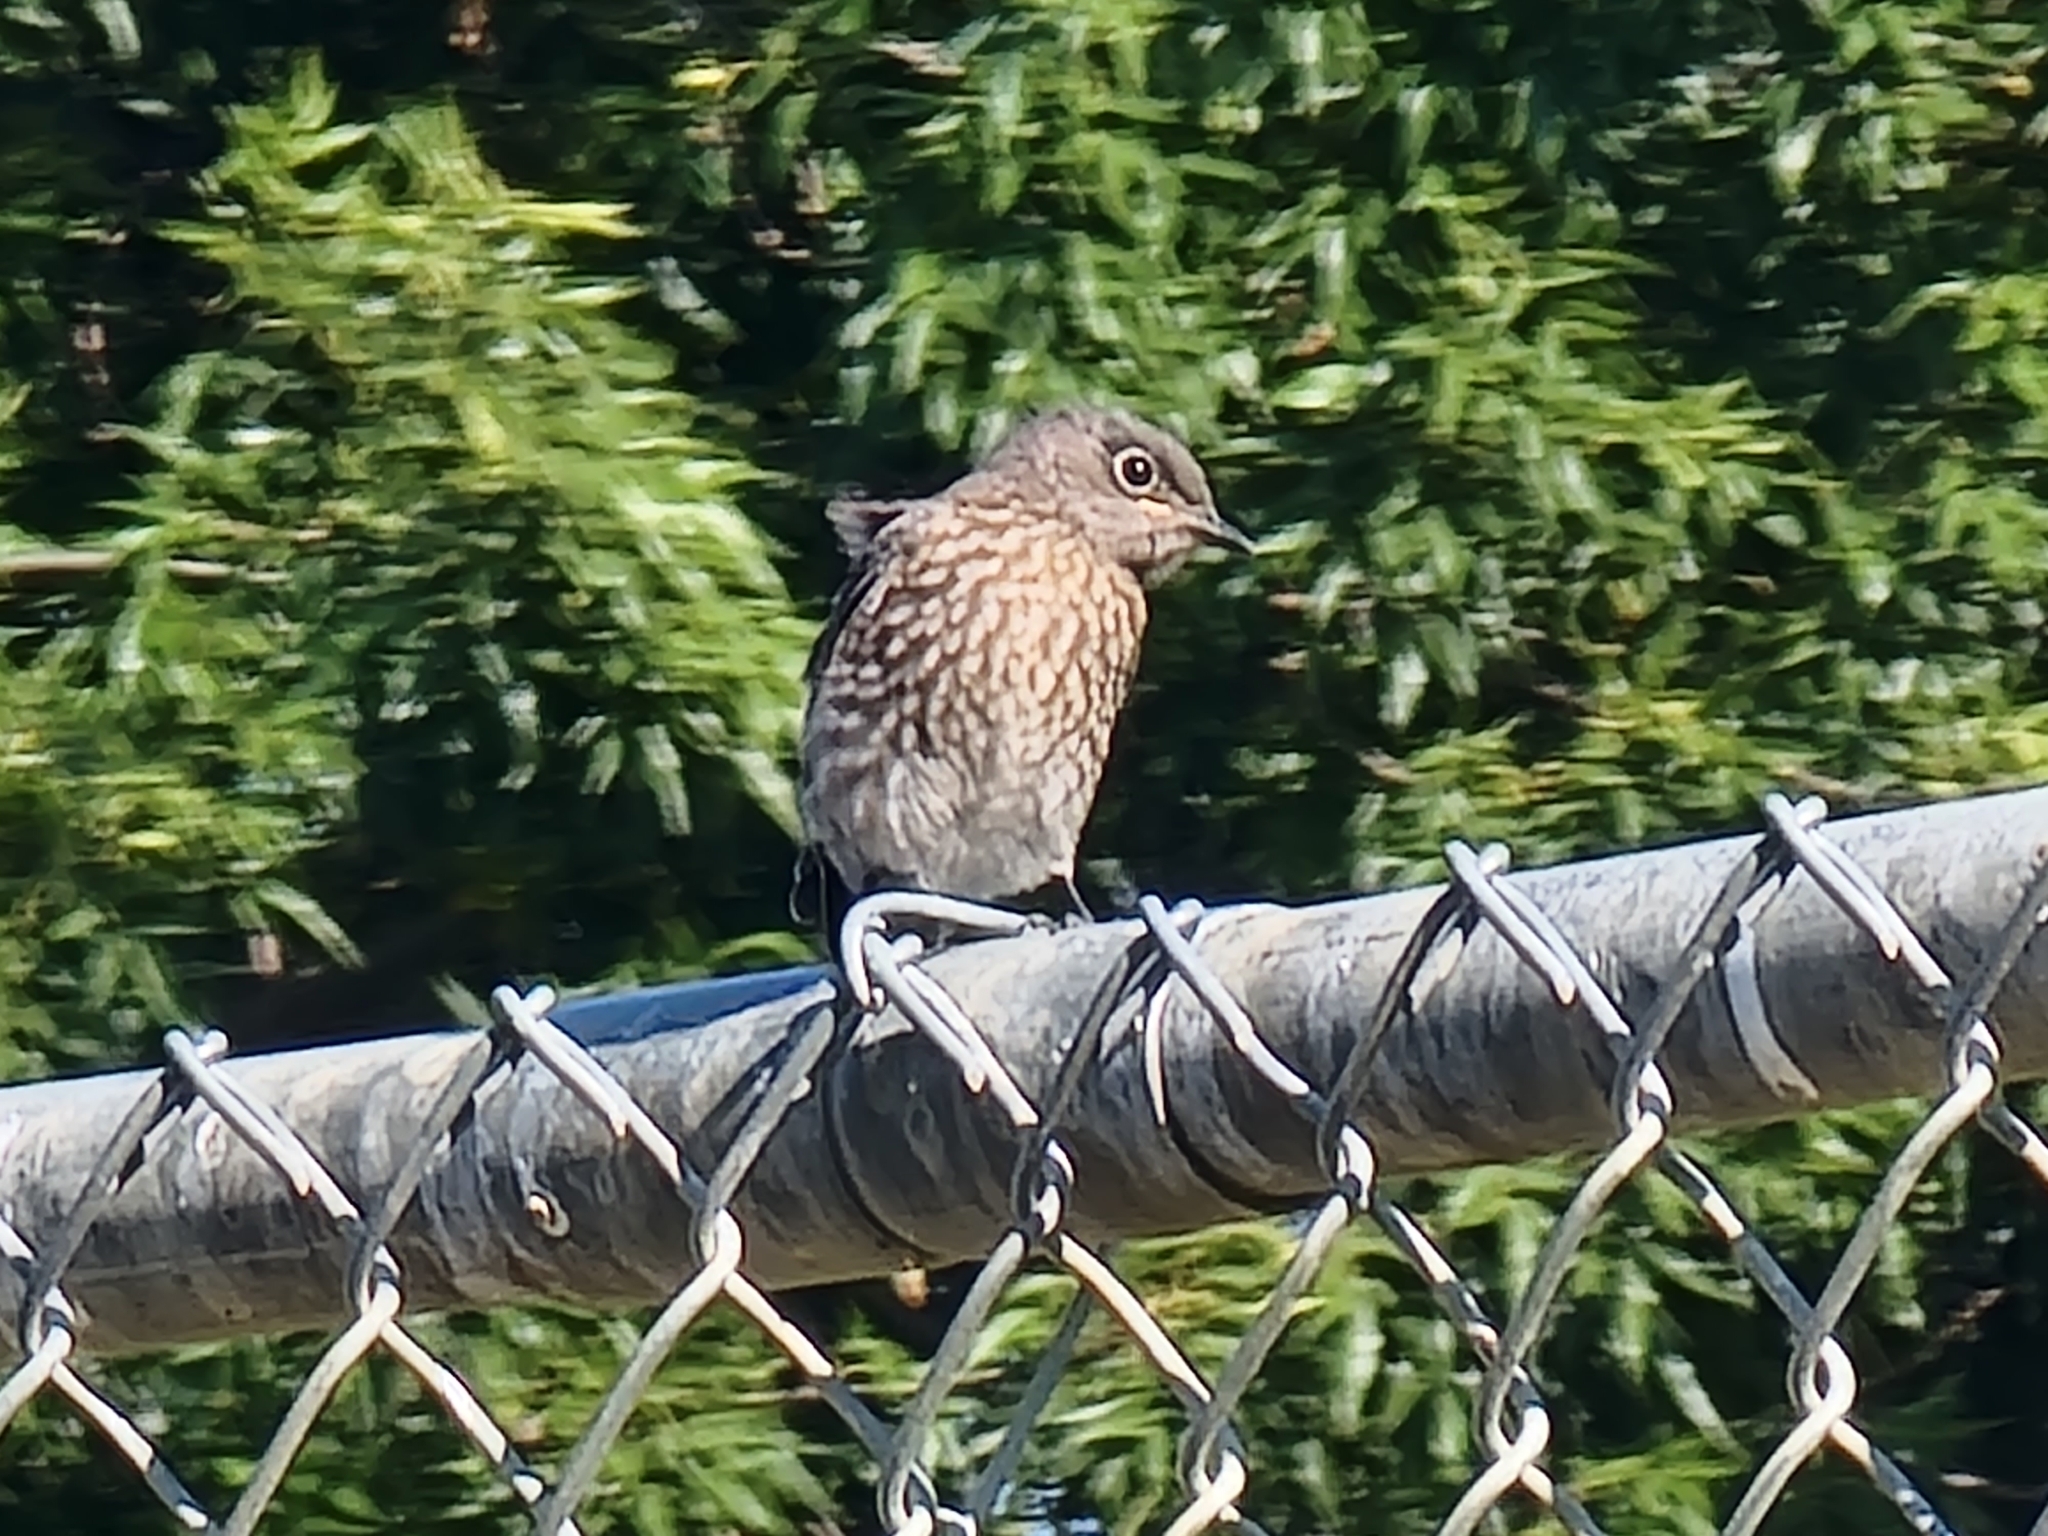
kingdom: Animalia
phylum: Chordata
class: Aves
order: Passeriformes
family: Turdidae
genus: Sialia
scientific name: Sialia mexicana
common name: Western bluebird
